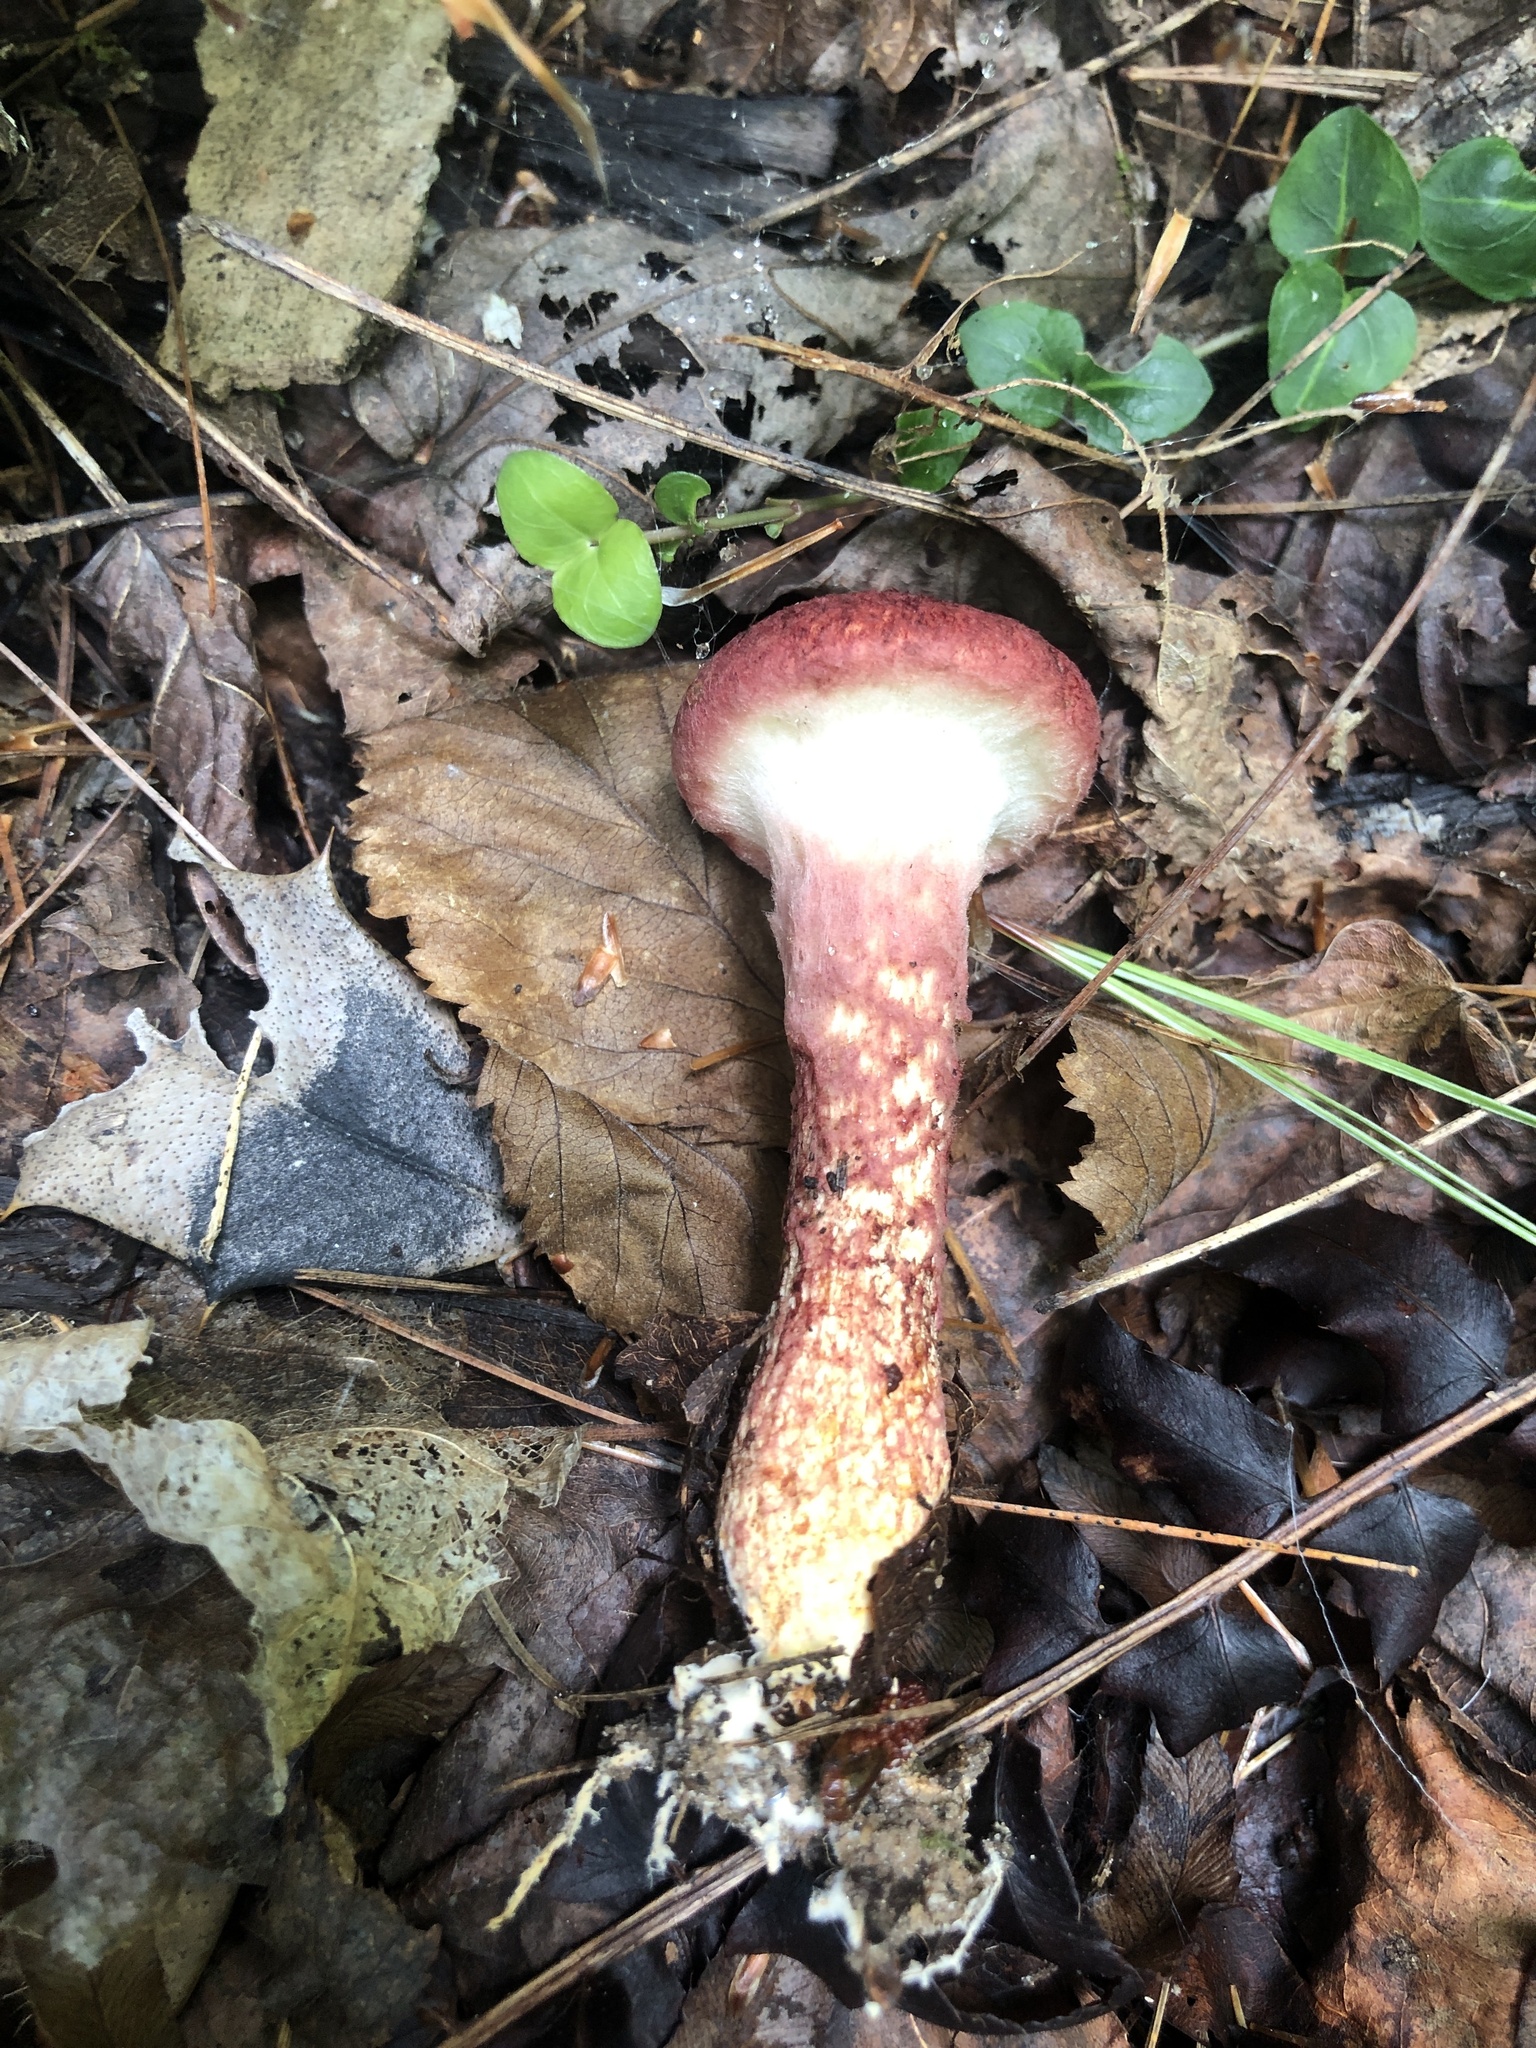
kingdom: Fungi
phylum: Basidiomycota
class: Agaricomycetes
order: Boletales
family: Suillaceae
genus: Suillus
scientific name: Suillus spraguei
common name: Painted suillus
